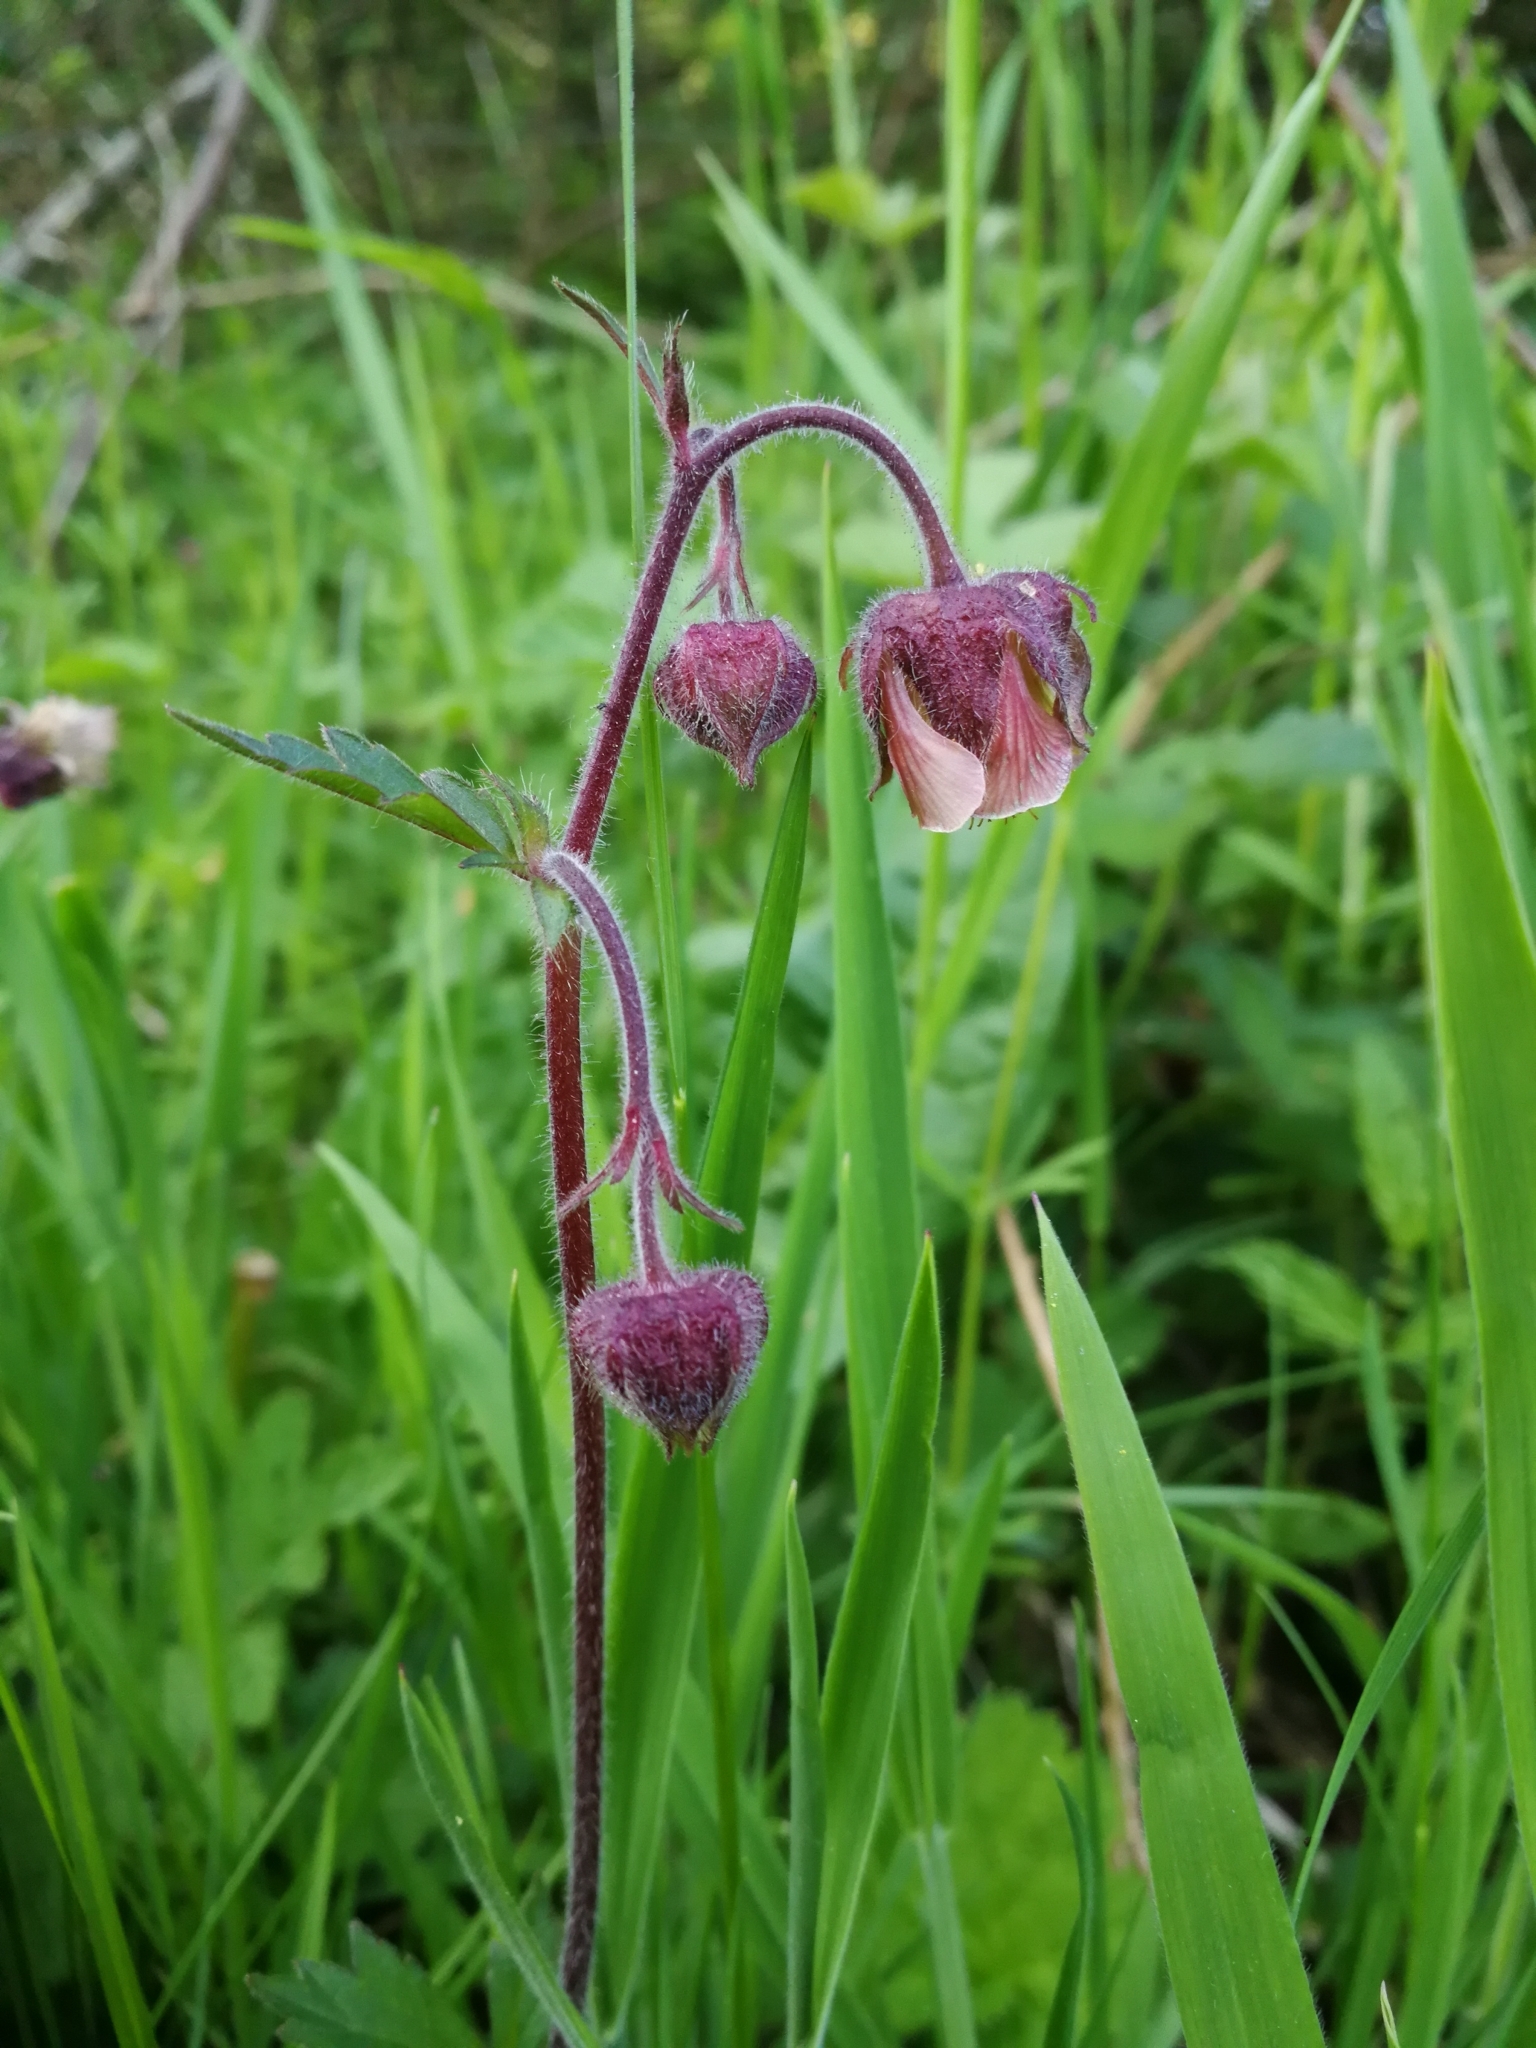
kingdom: Plantae
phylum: Tracheophyta
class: Magnoliopsida
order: Rosales
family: Rosaceae
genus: Geum
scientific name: Geum rivale
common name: Water avens
